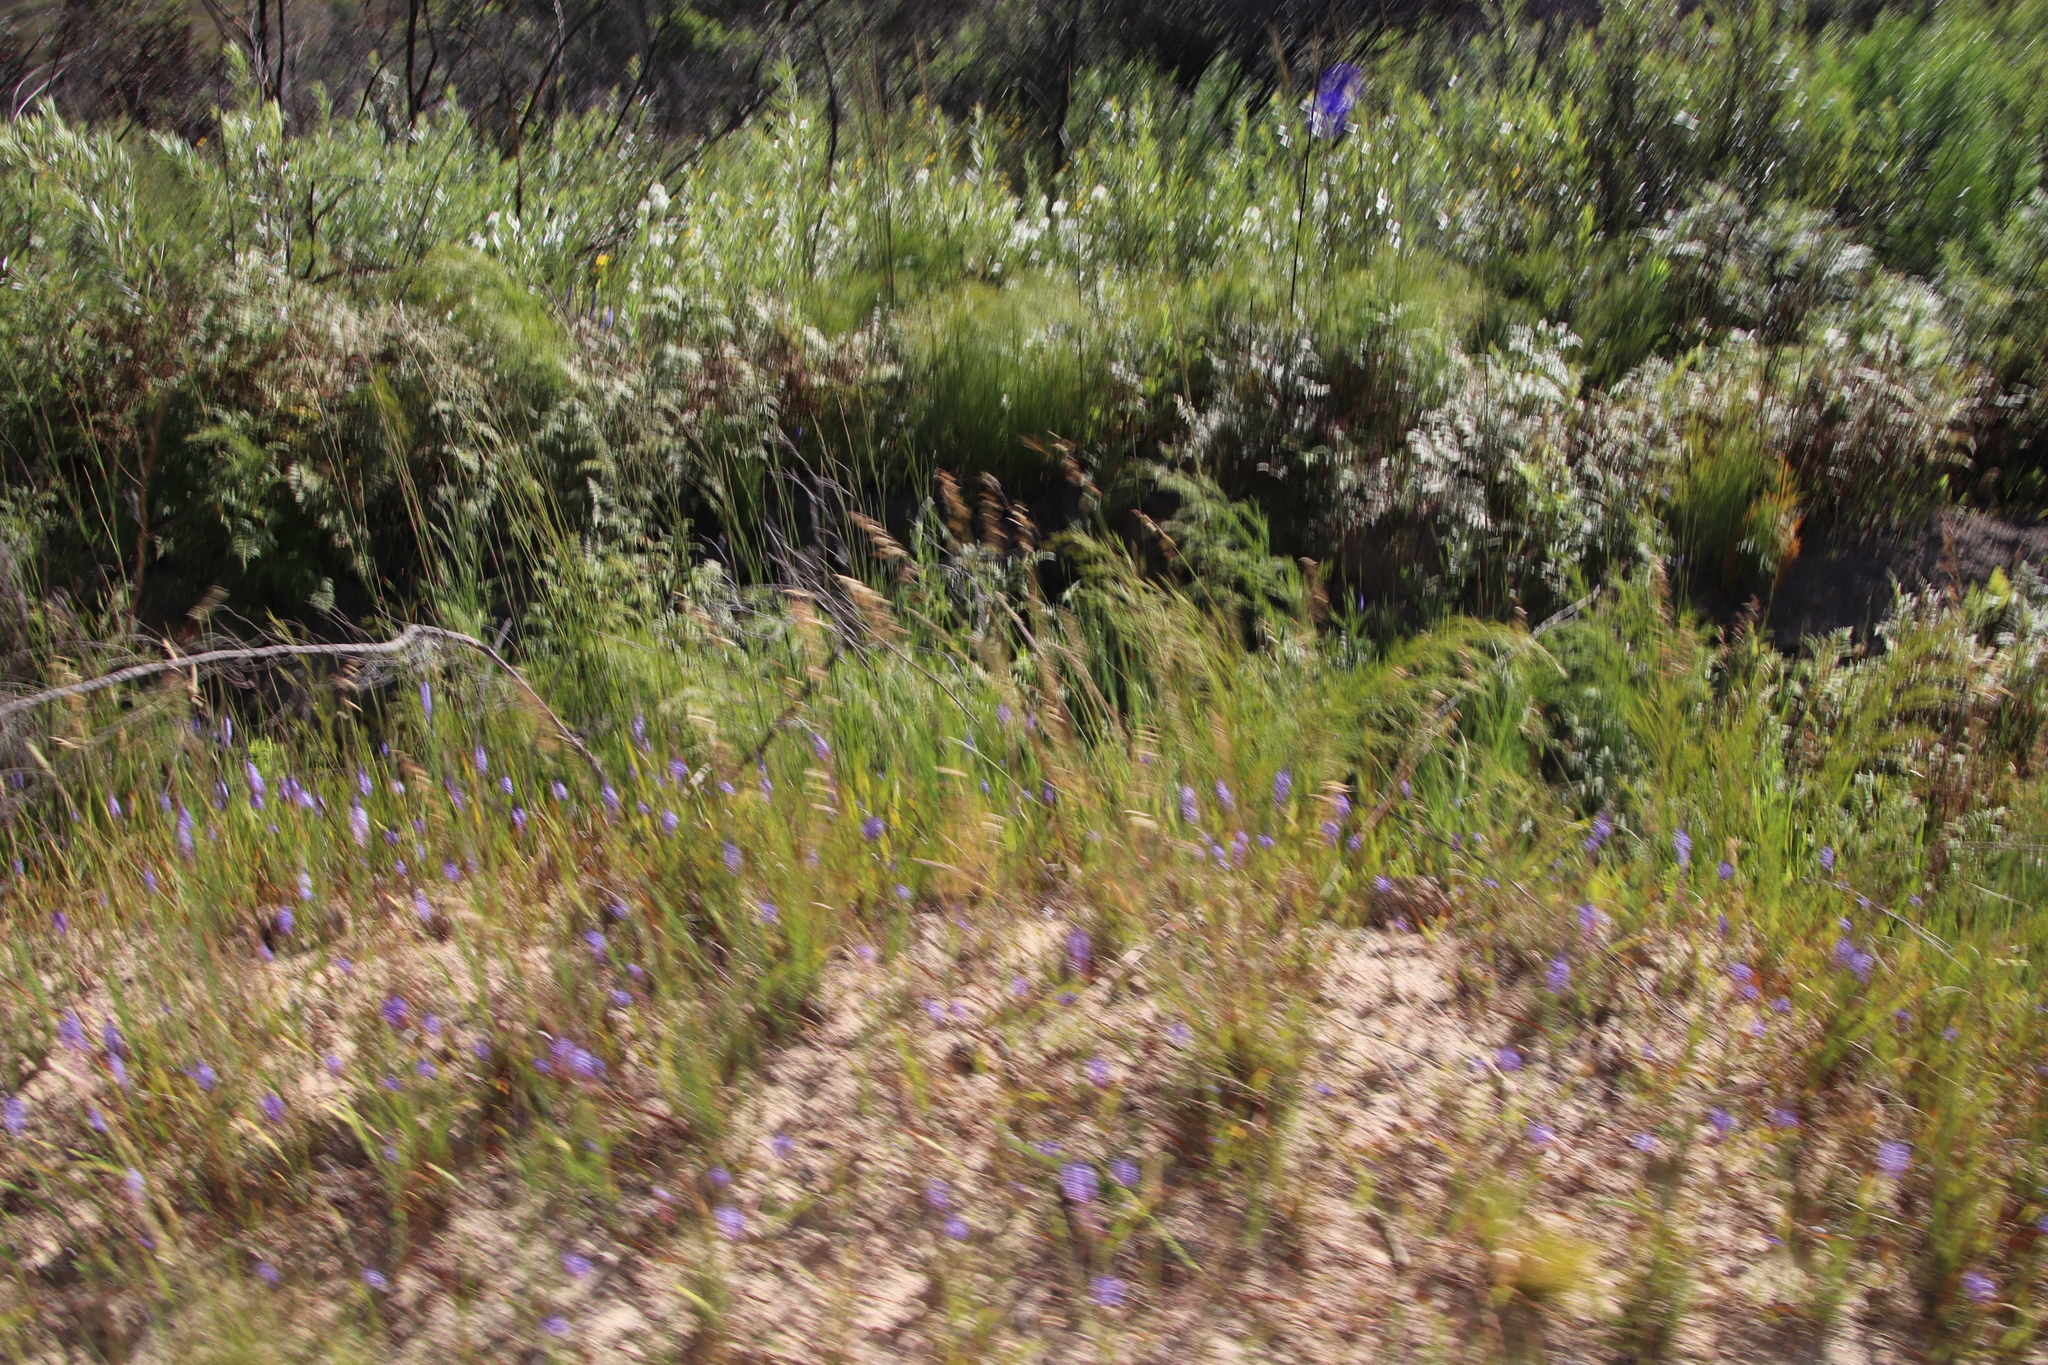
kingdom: Plantae
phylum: Tracheophyta
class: Liliopsida
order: Asparagales
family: Iridaceae
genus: Micranthus
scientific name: Micranthus alopecuroides
